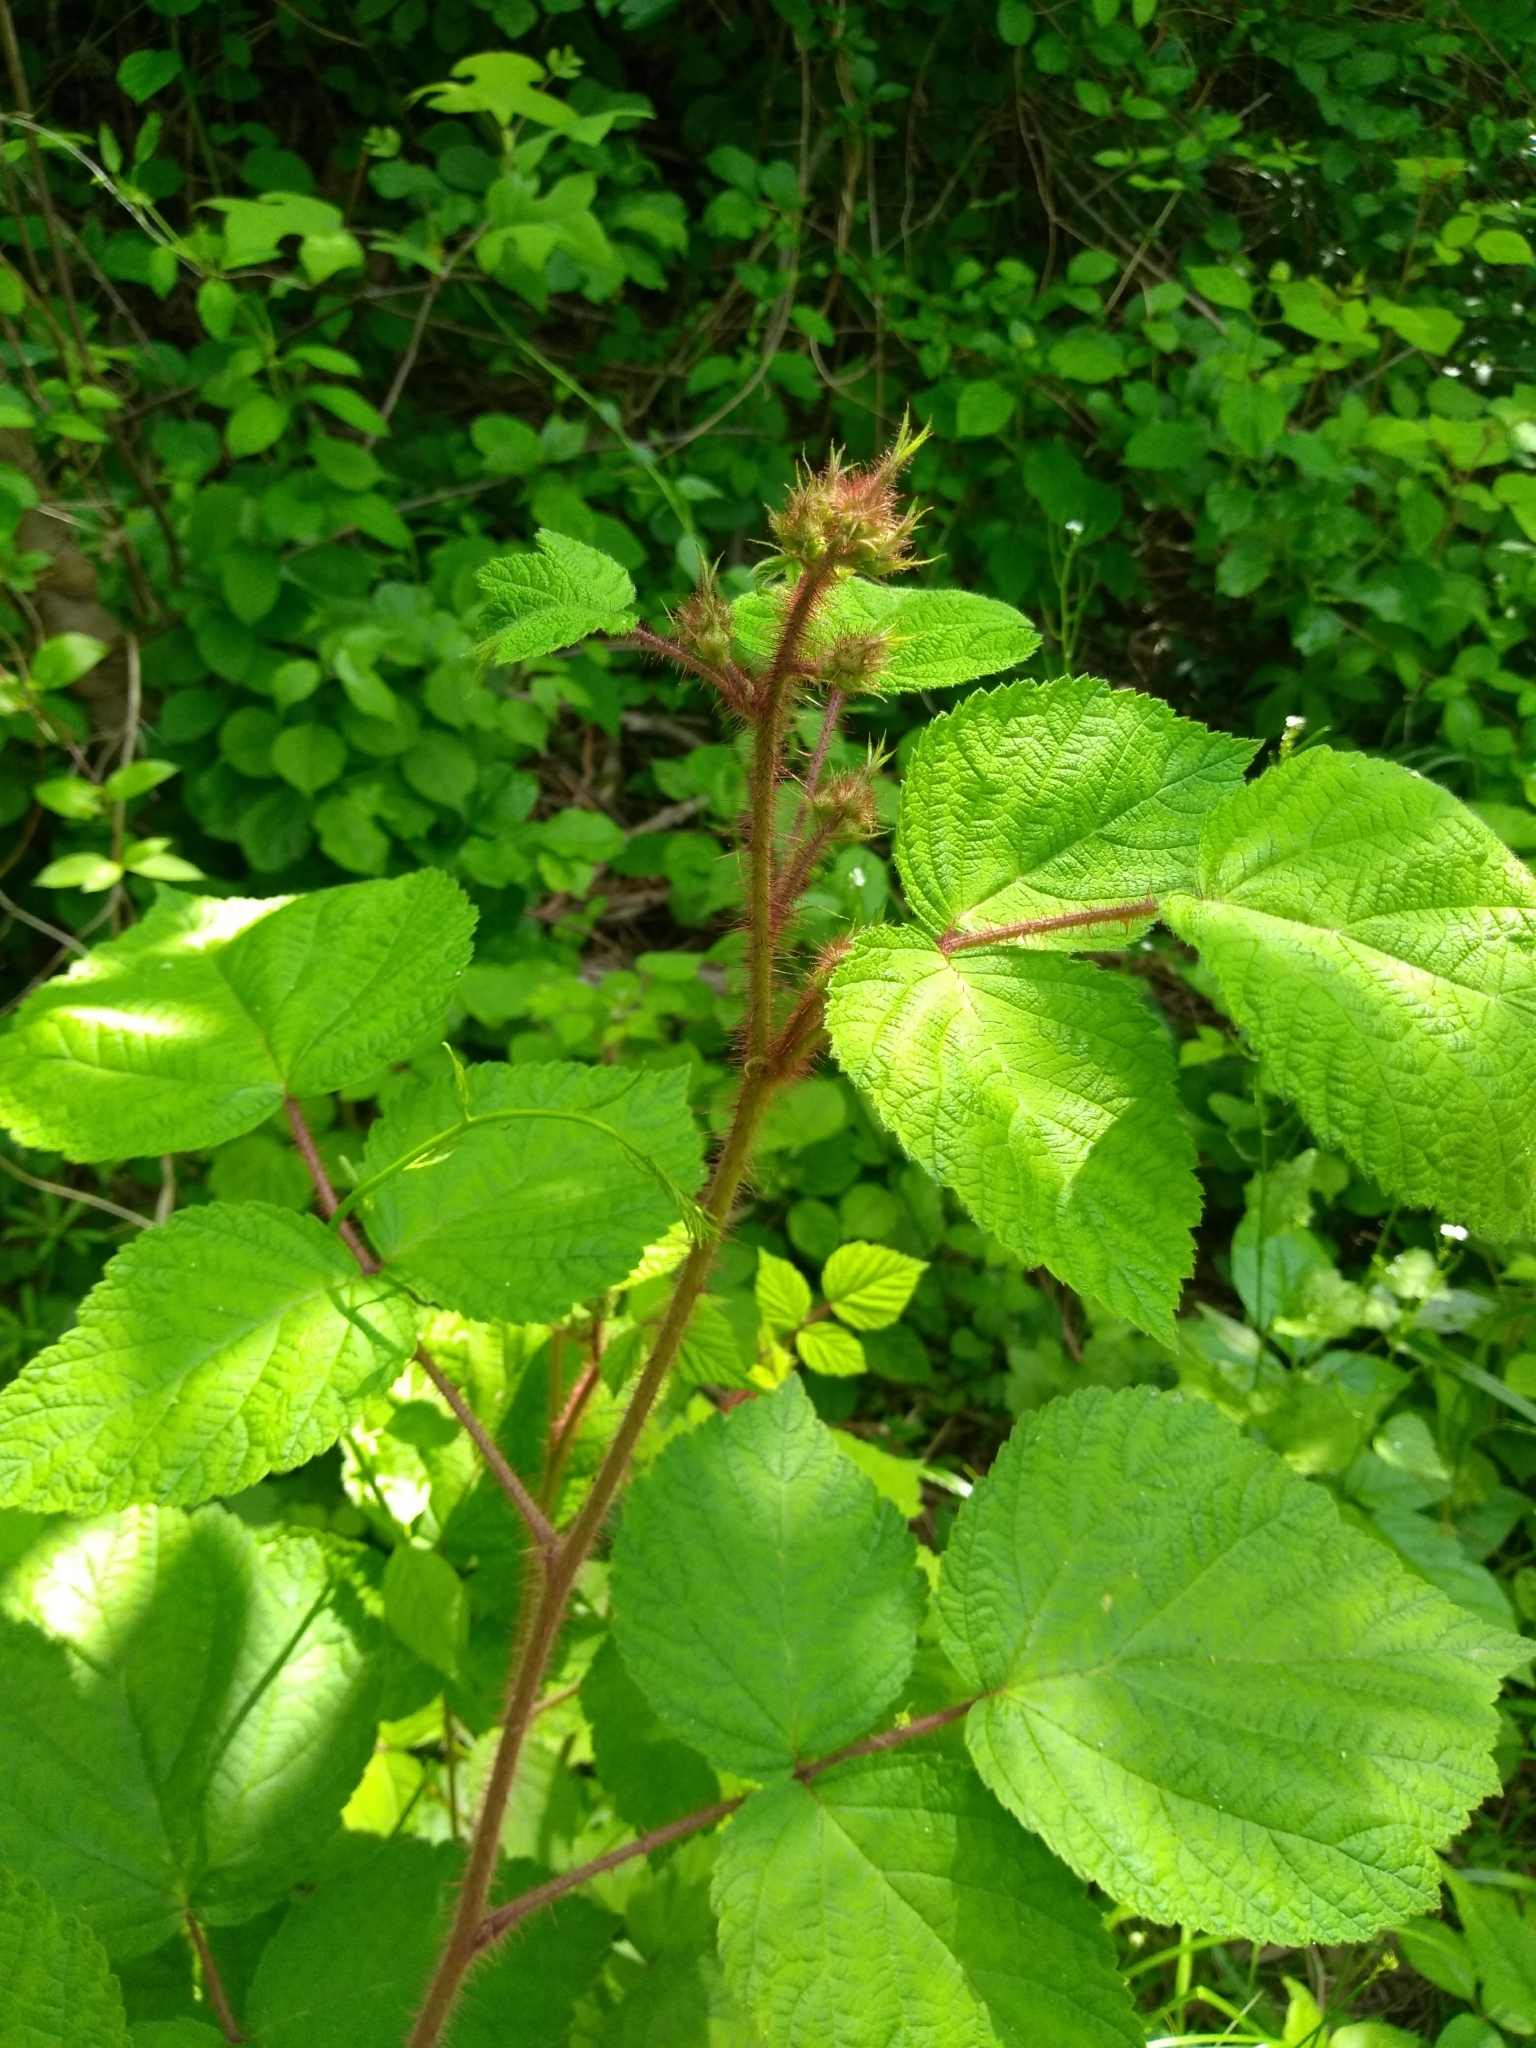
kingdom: Plantae
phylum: Tracheophyta
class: Magnoliopsida
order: Rosales
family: Rosaceae
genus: Rubus
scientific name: Rubus phoenicolasius
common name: Japanese wineberry
